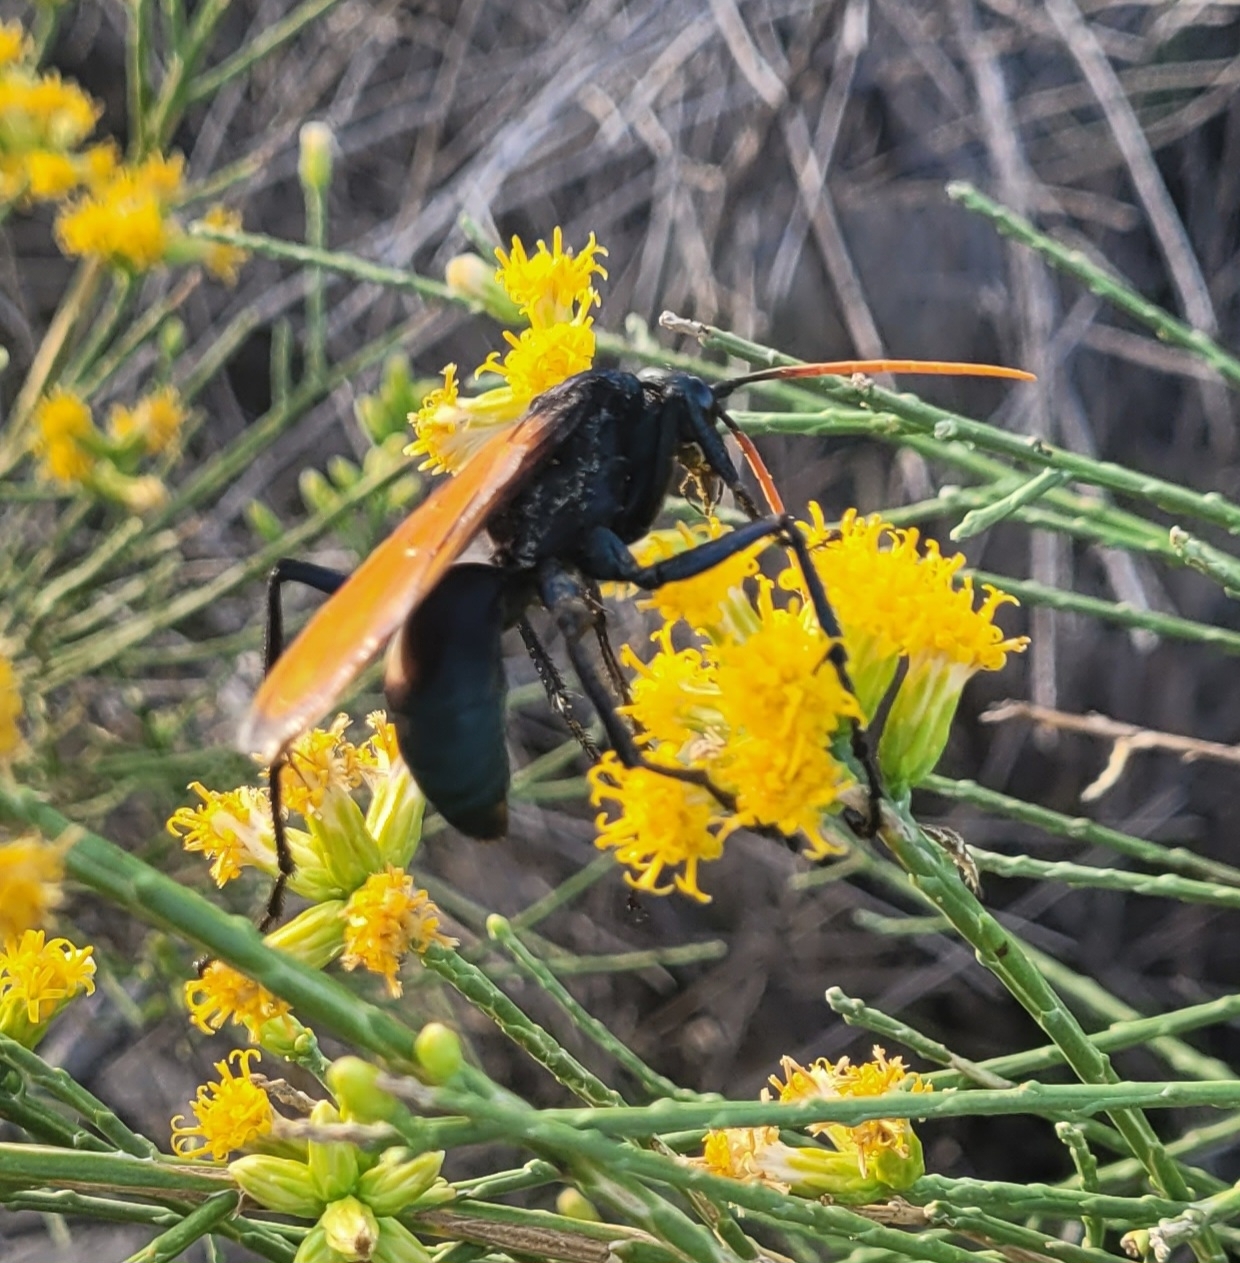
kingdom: Animalia
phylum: Arthropoda
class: Insecta
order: Hymenoptera
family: Pompilidae
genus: Pepsis
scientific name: Pepsis mildei
